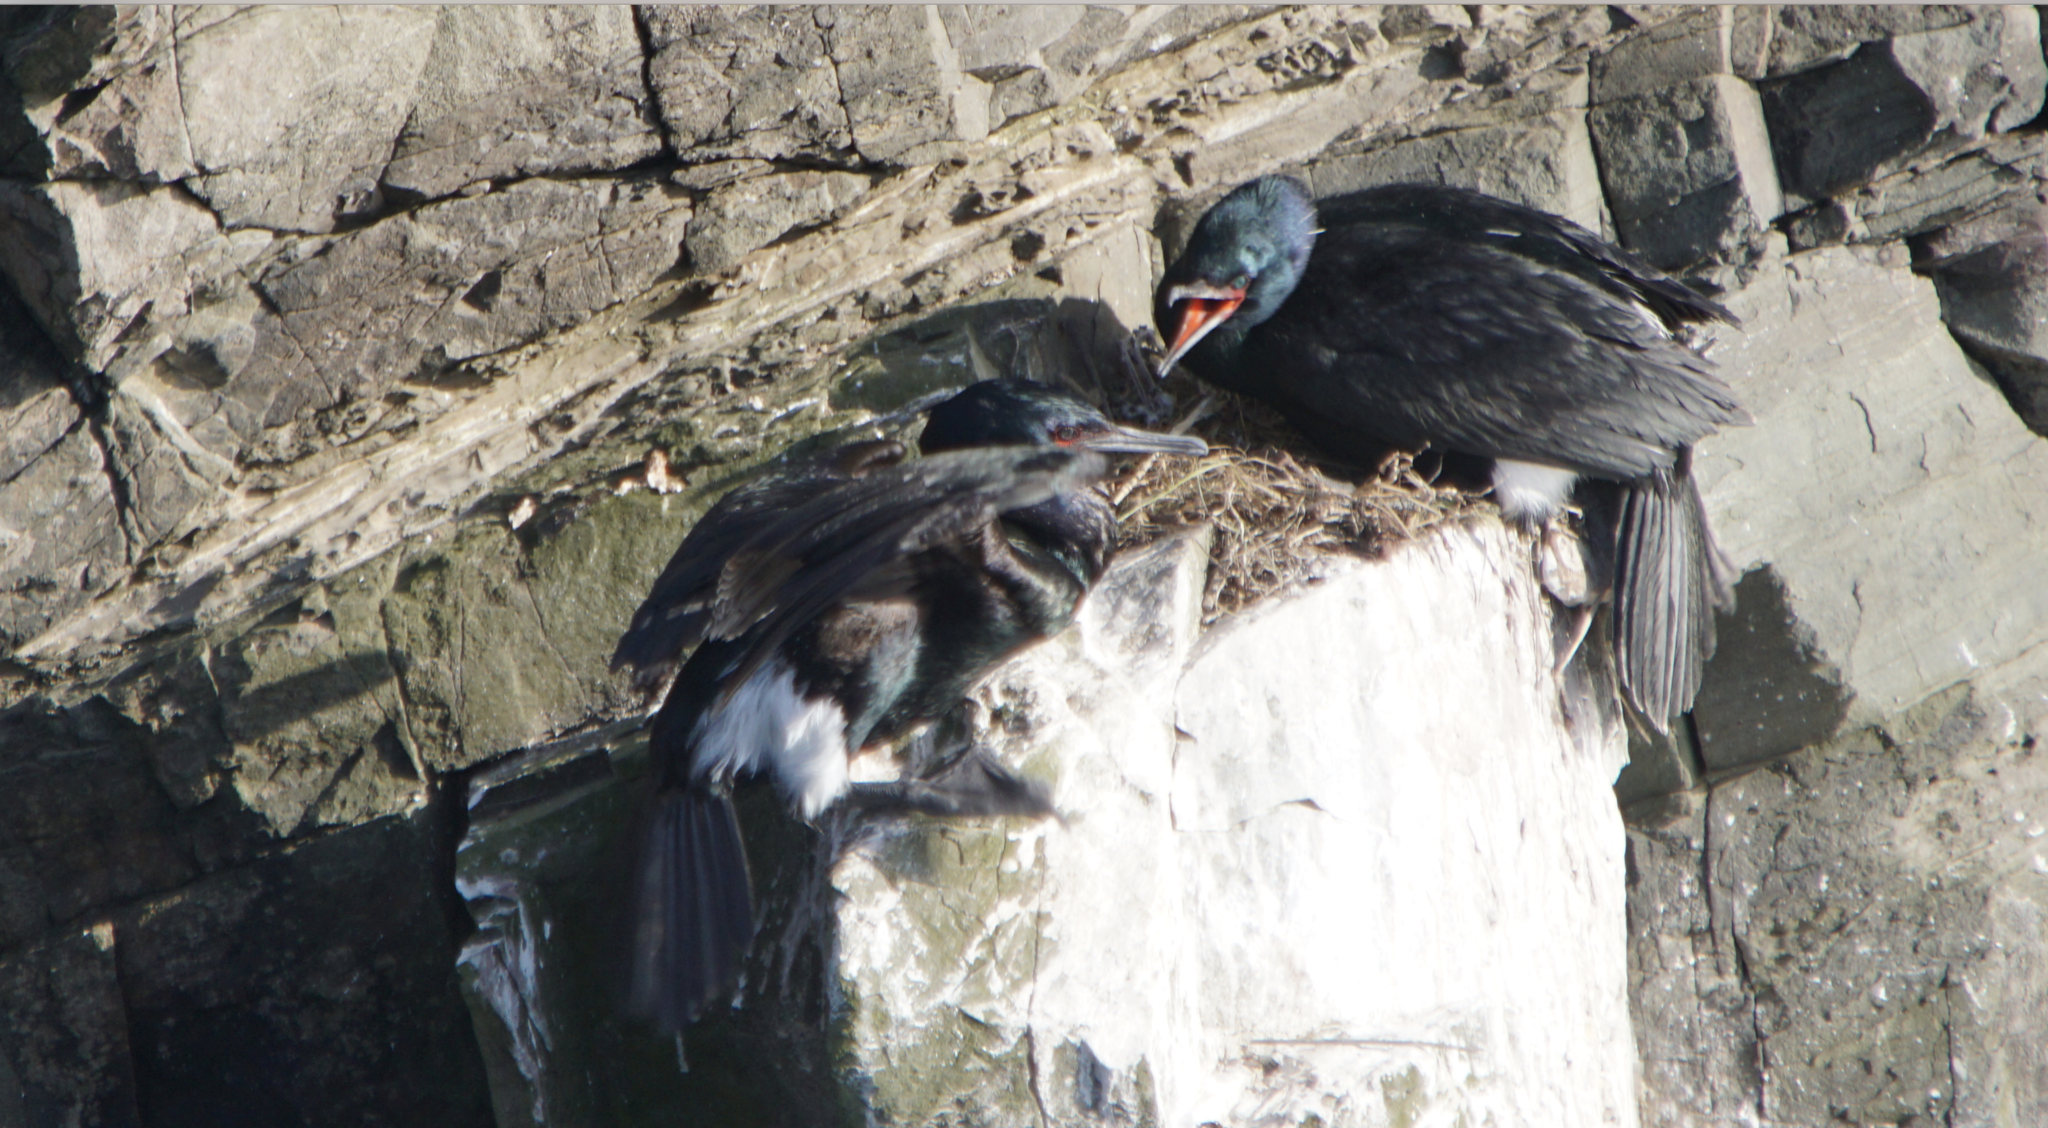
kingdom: Animalia
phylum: Chordata
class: Aves
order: Suliformes
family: Phalacrocoracidae
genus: Phalacrocorax
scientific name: Phalacrocorax pelagicus
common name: Pelagic cormorant
